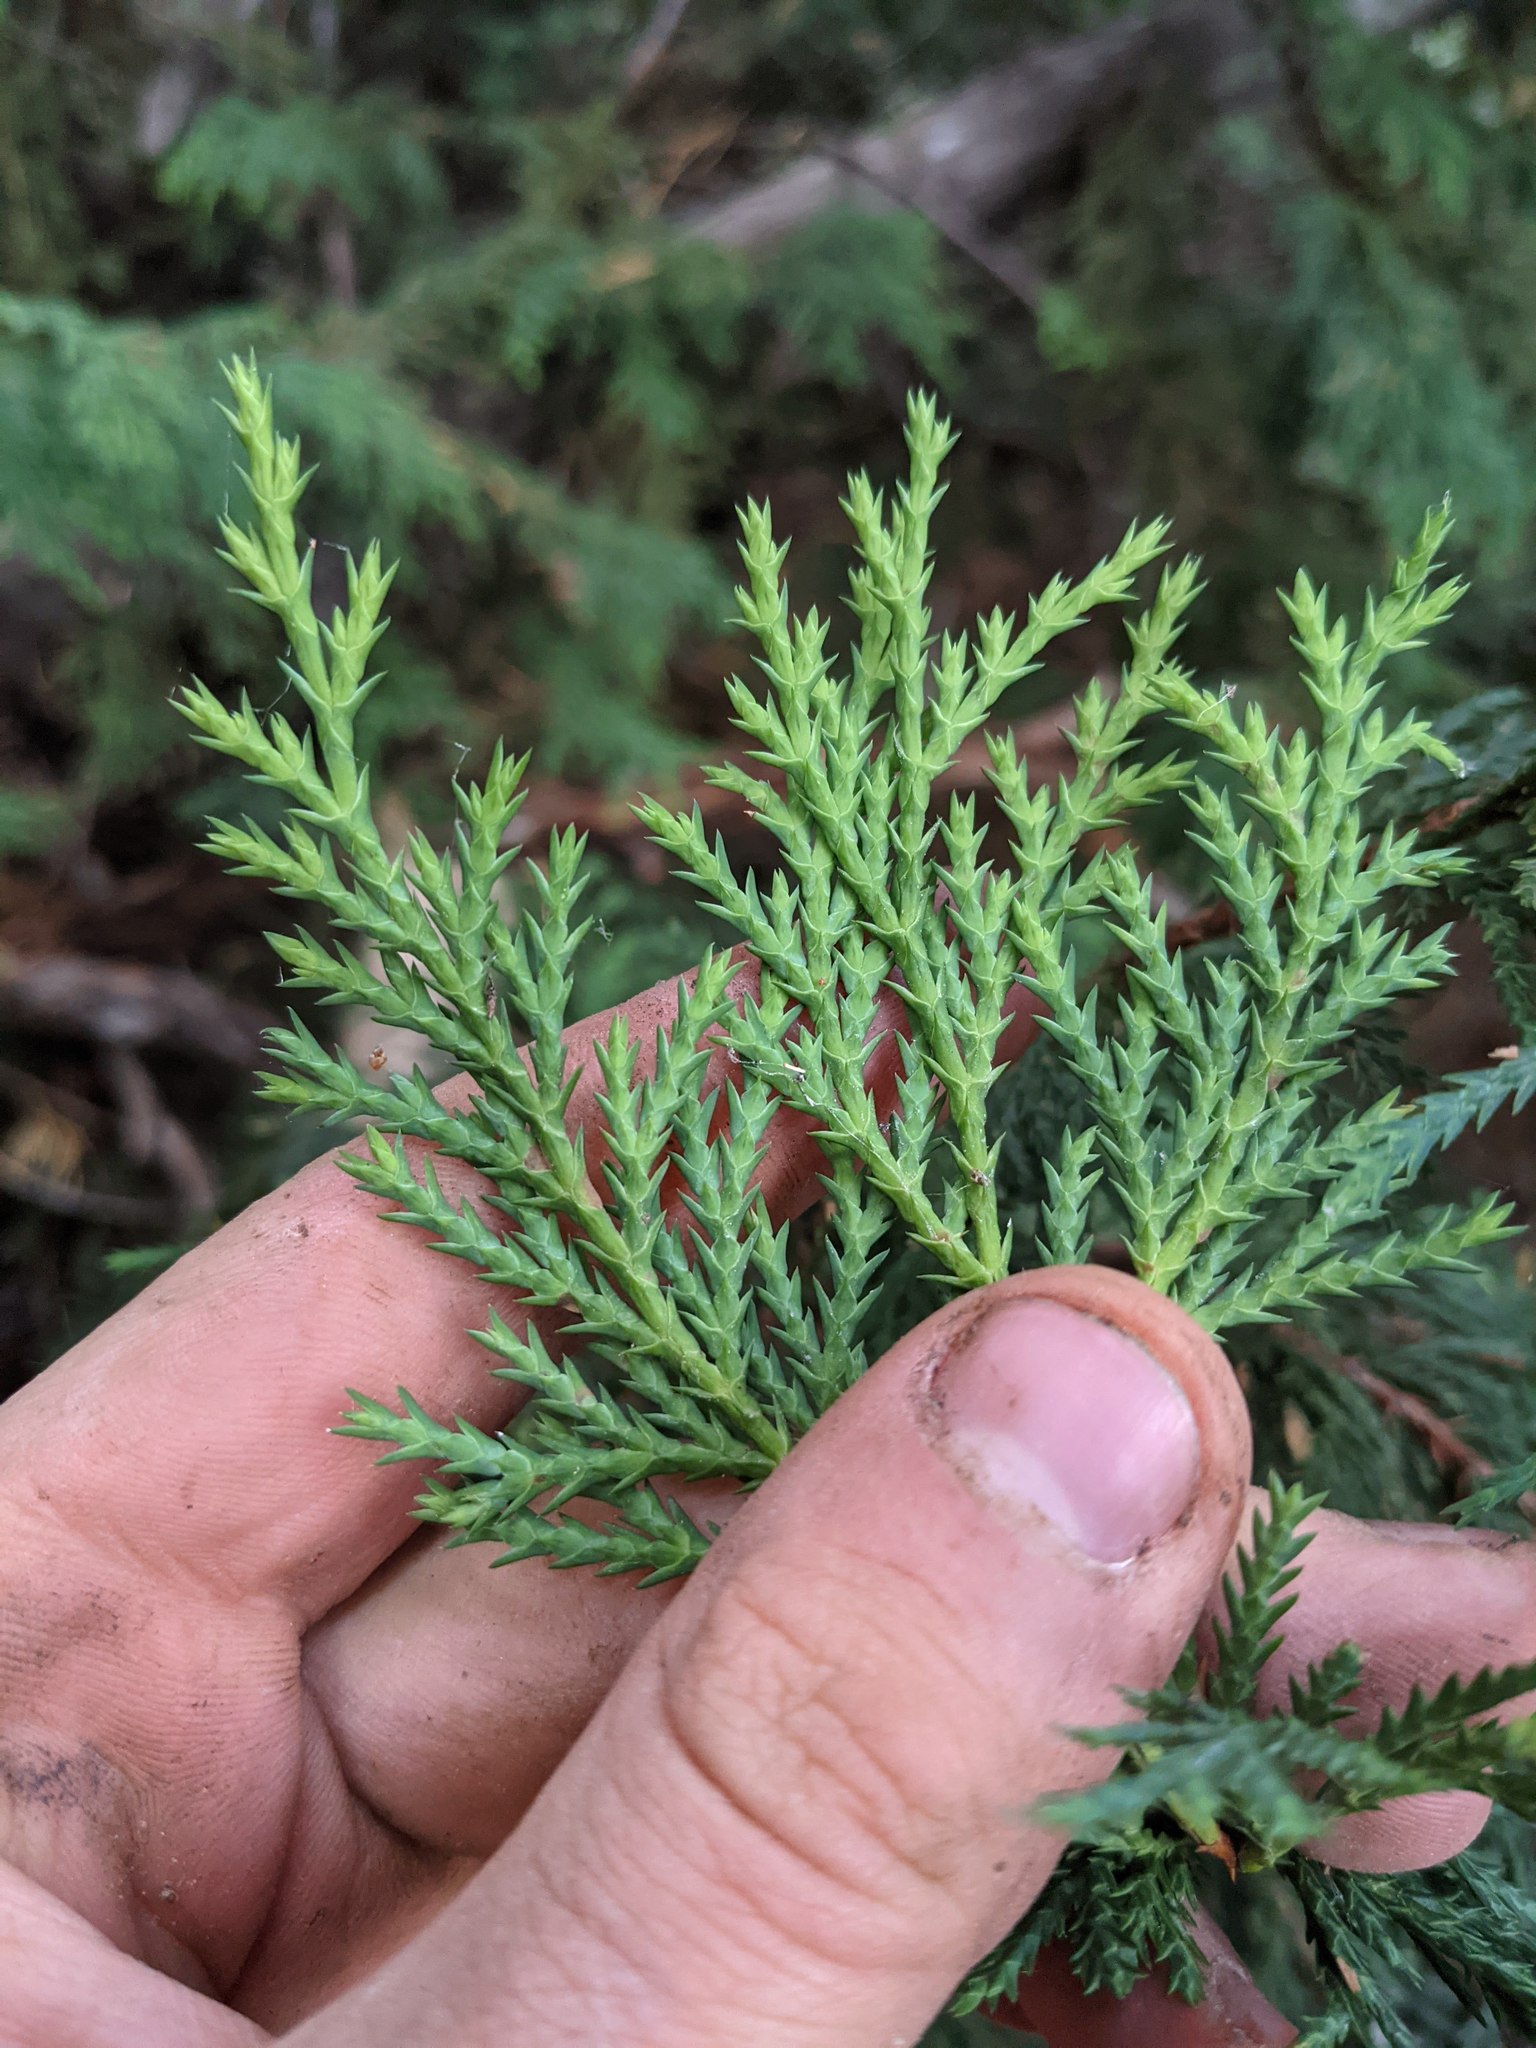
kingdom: Plantae
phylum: Tracheophyta
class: Pinopsida
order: Pinales
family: Cupressaceae
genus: Xanthocyparis
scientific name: Xanthocyparis nootkatensis
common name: Nootka cypress
